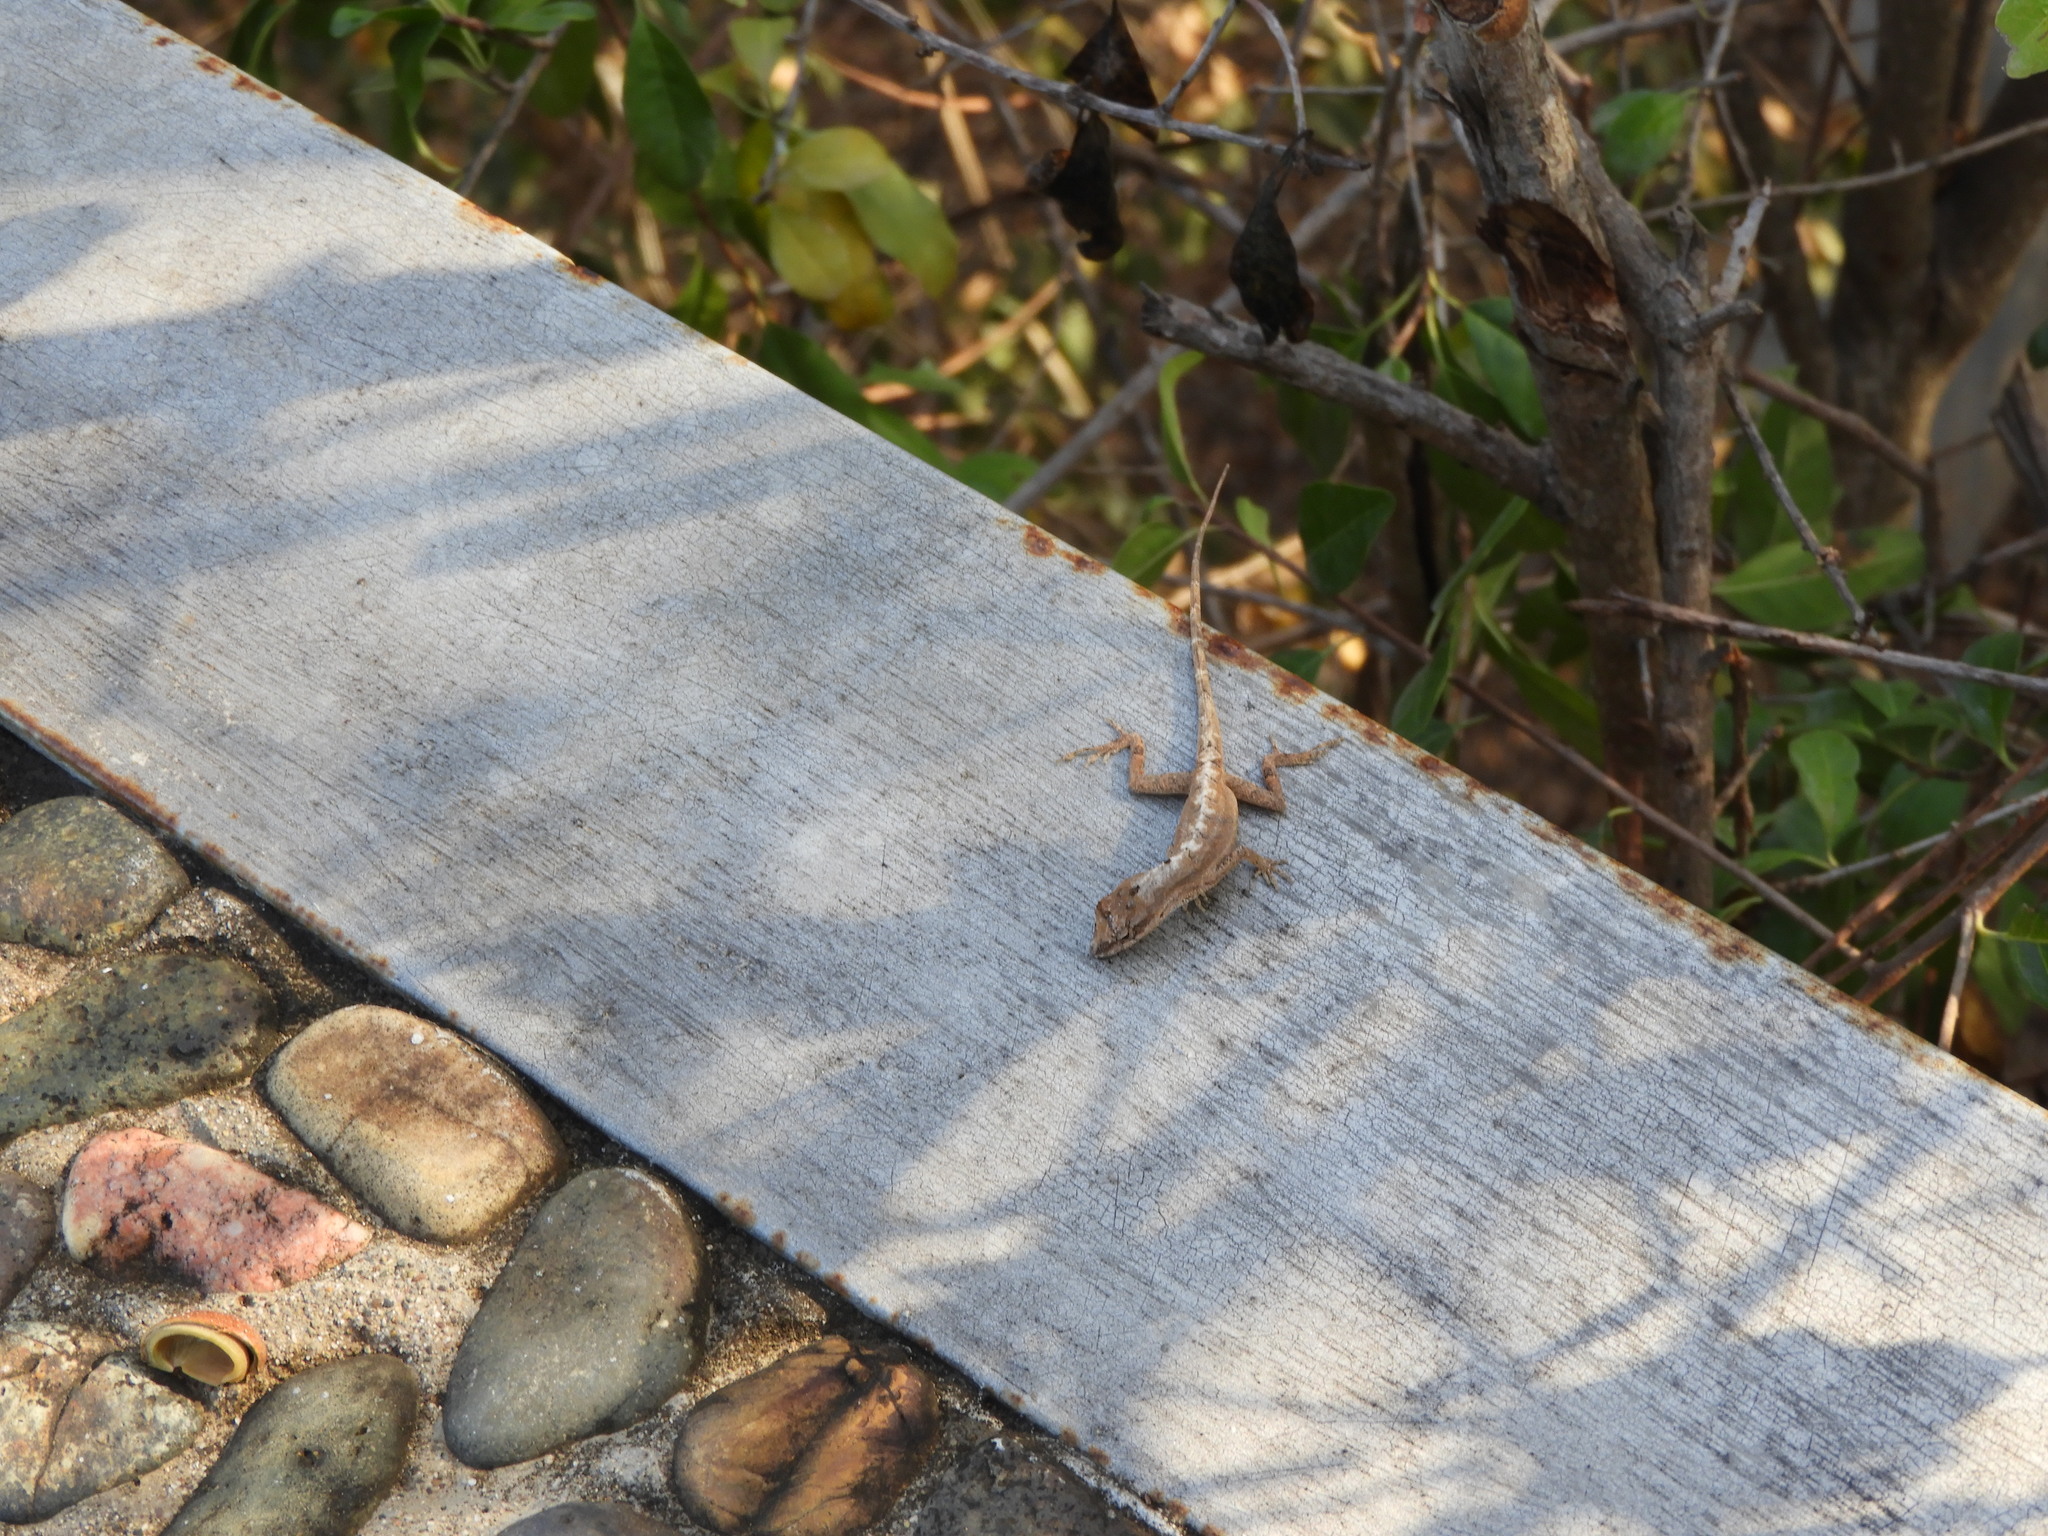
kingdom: Animalia
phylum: Chordata
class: Squamata
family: Dactyloidae
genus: Anolis
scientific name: Anolis nebulosus
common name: Clouded anole
